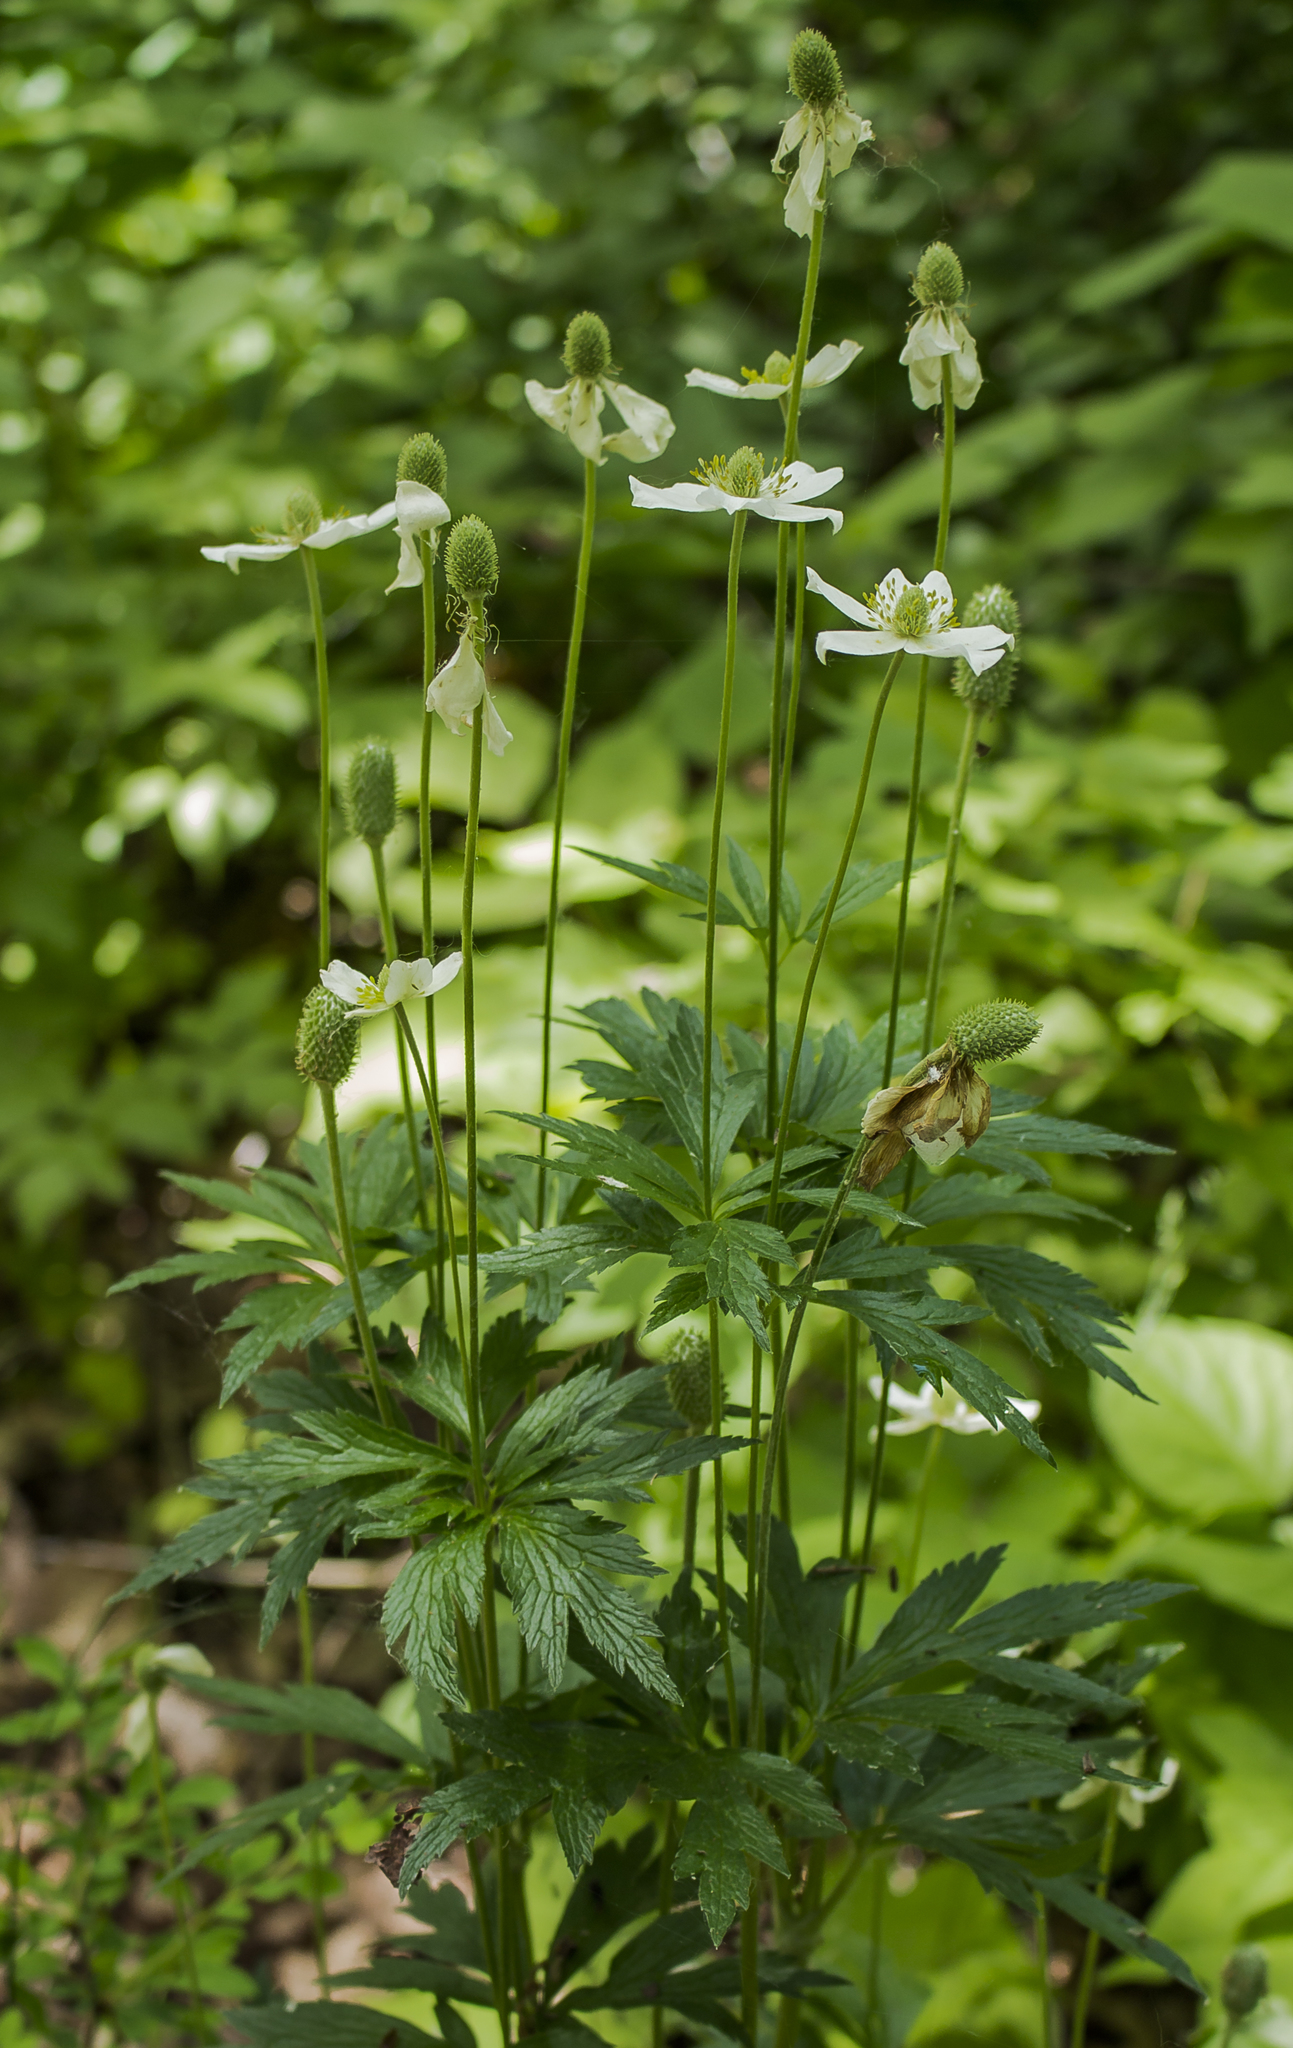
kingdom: Plantae
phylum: Tracheophyta
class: Magnoliopsida
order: Ranunculales
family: Ranunculaceae
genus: Anemone
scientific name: Anemone virginiana
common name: Tall anemone
